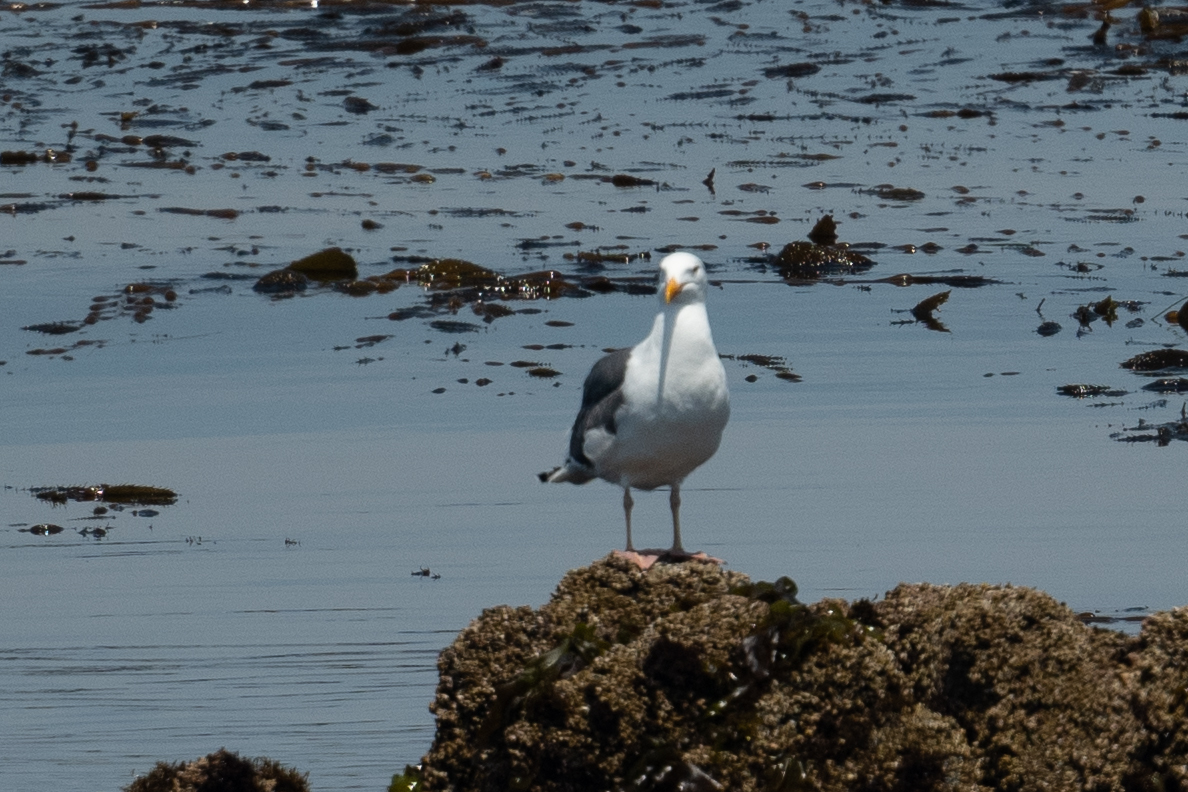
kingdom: Animalia
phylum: Chordata
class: Aves
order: Charadriiformes
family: Laridae
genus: Larus
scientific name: Larus occidentalis
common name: Western gull
